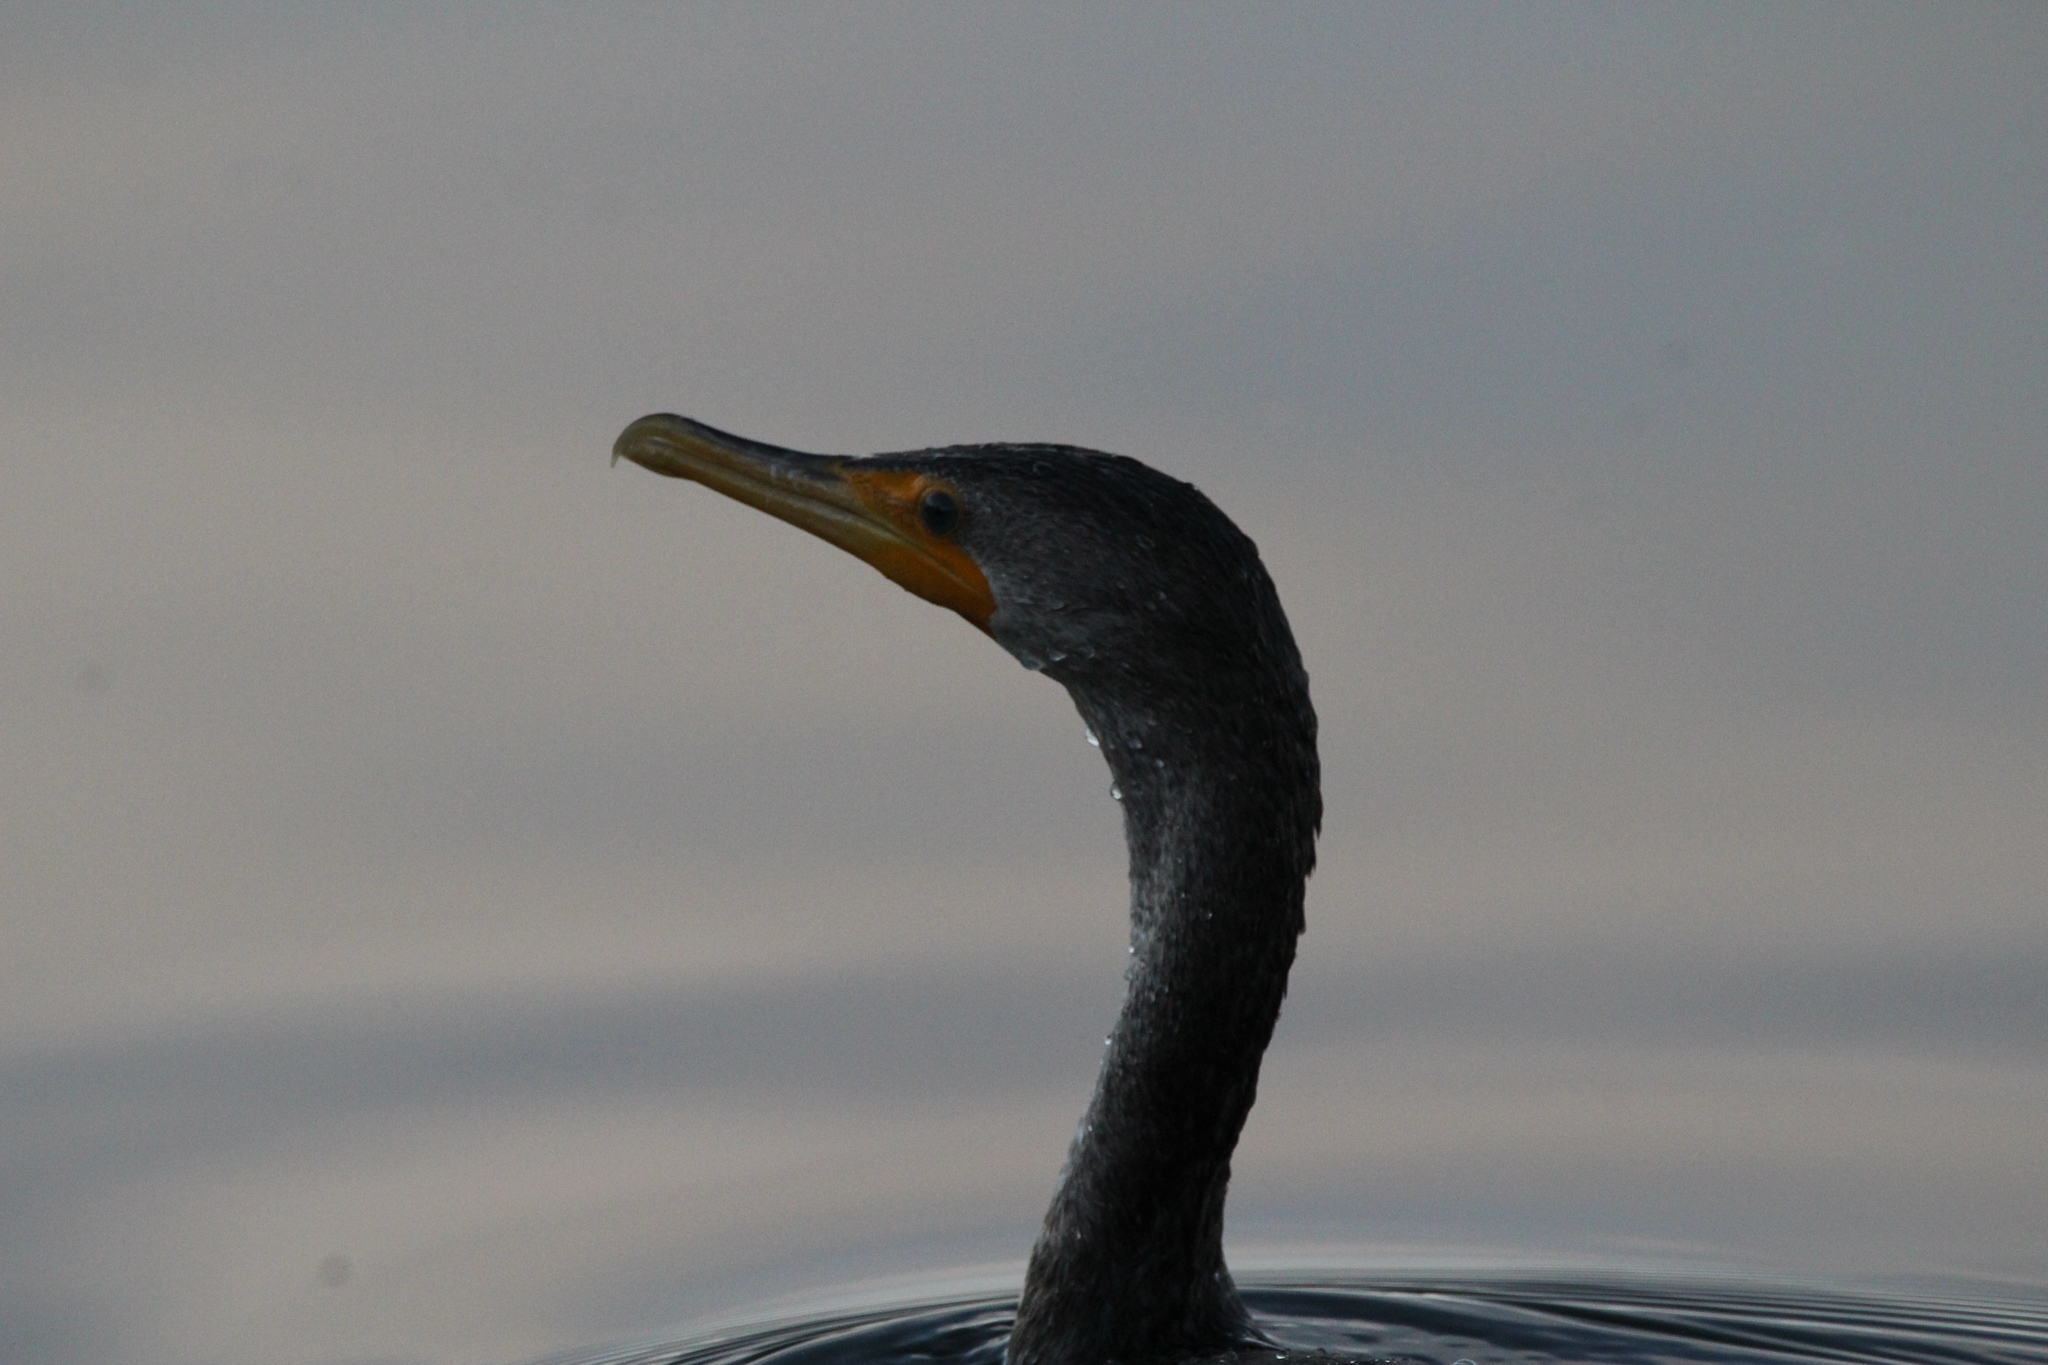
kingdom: Animalia
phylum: Chordata
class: Aves
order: Suliformes
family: Phalacrocoracidae
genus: Phalacrocorax
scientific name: Phalacrocorax auritus
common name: Double-crested cormorant
